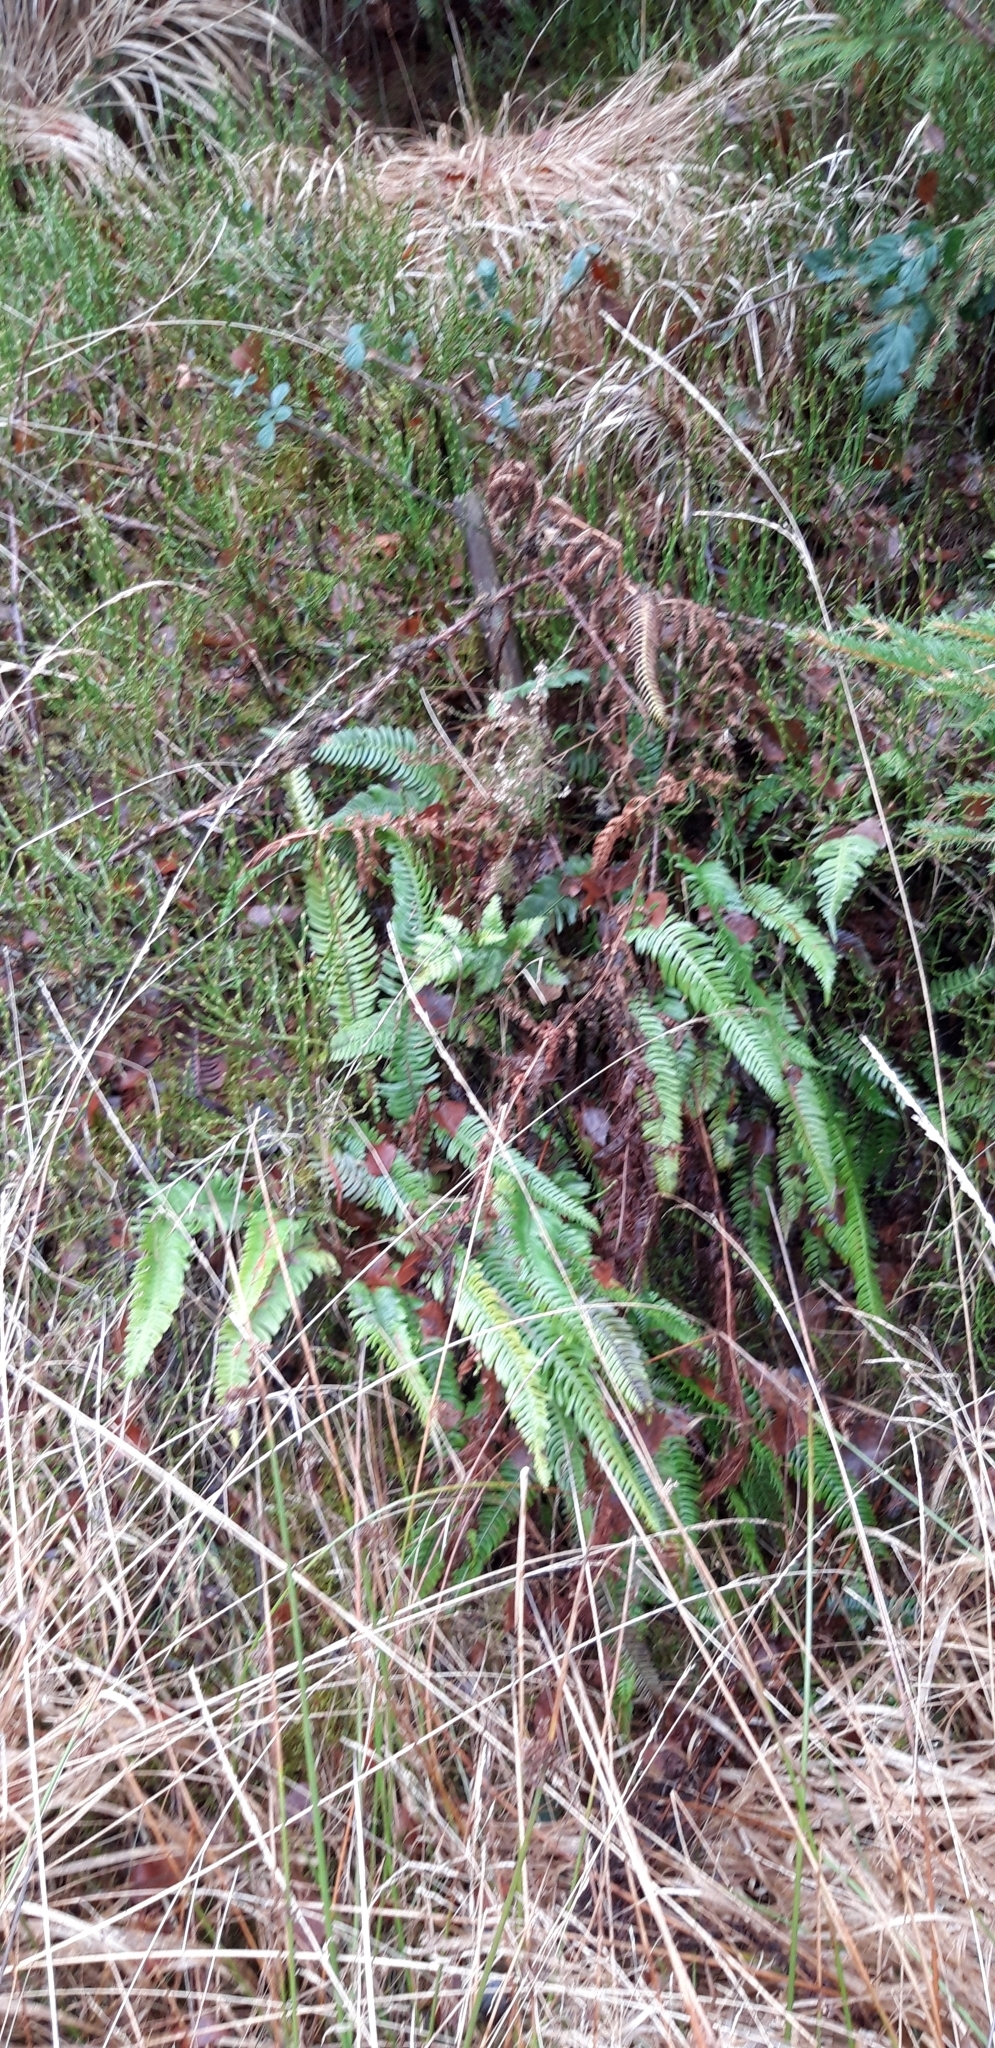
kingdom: Plantae
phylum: Tracheophyta
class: Polypodiopsida
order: Polypodiales
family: Blechnaceae
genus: Struthiopteris
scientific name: Struthiopteris spicant
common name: Deer fern
